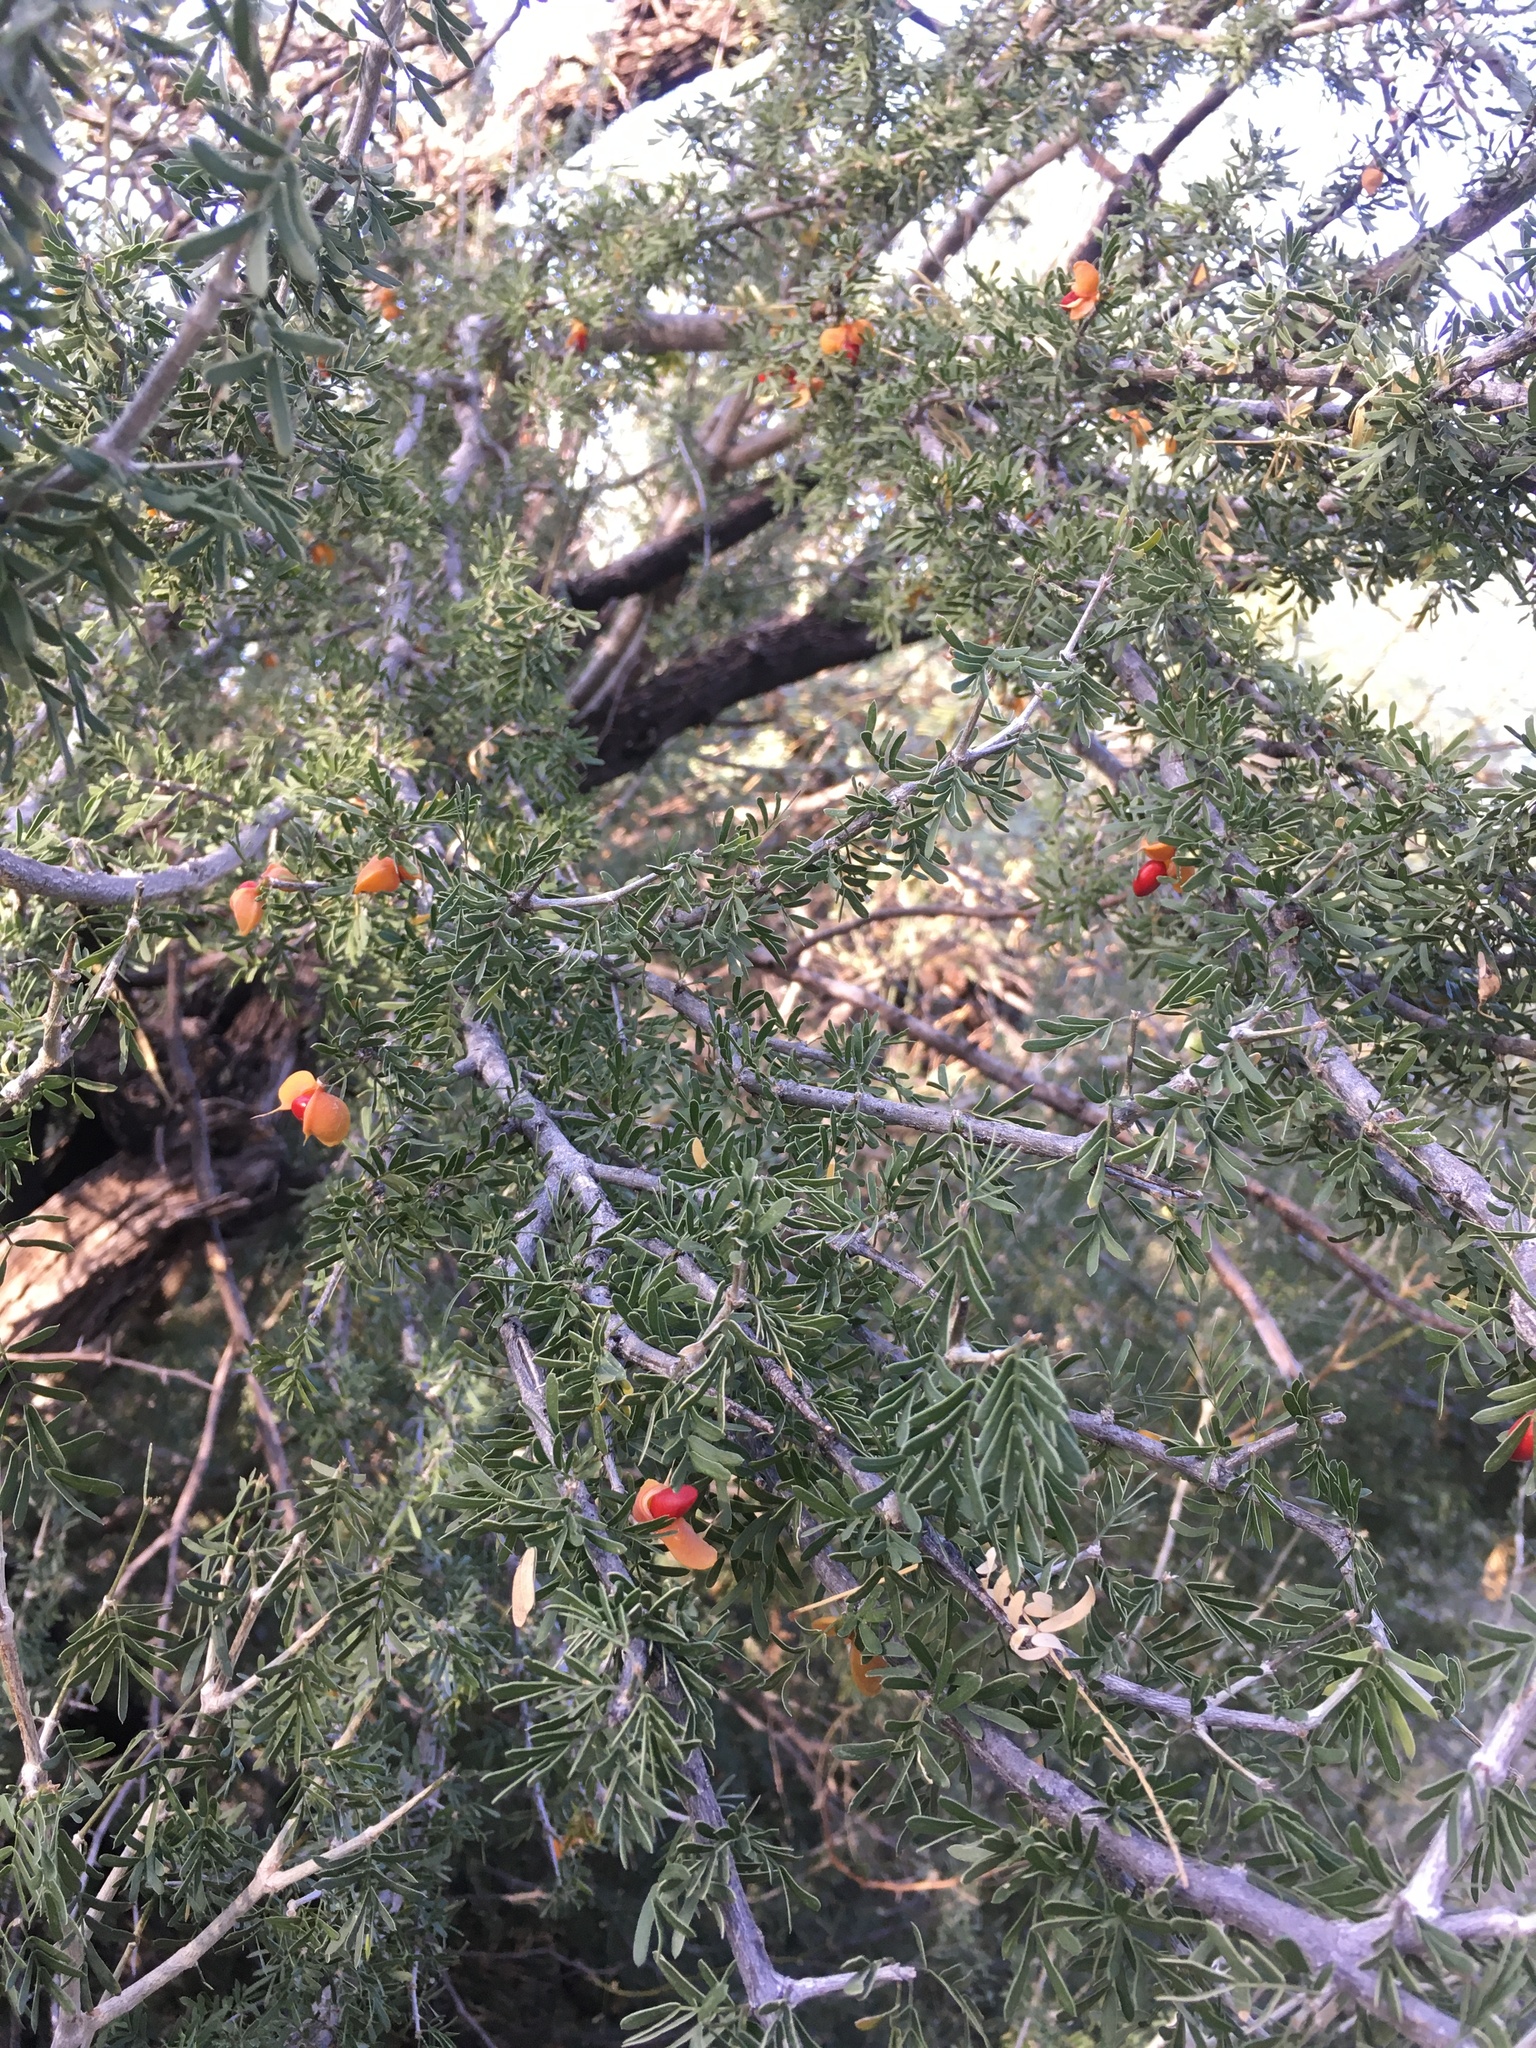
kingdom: Plantae
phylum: Tracheophyta
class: Magnoliopsida
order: Zygophyllales
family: Zygophyllaceae
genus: Porlieria
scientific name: Porlieria angustifolia
